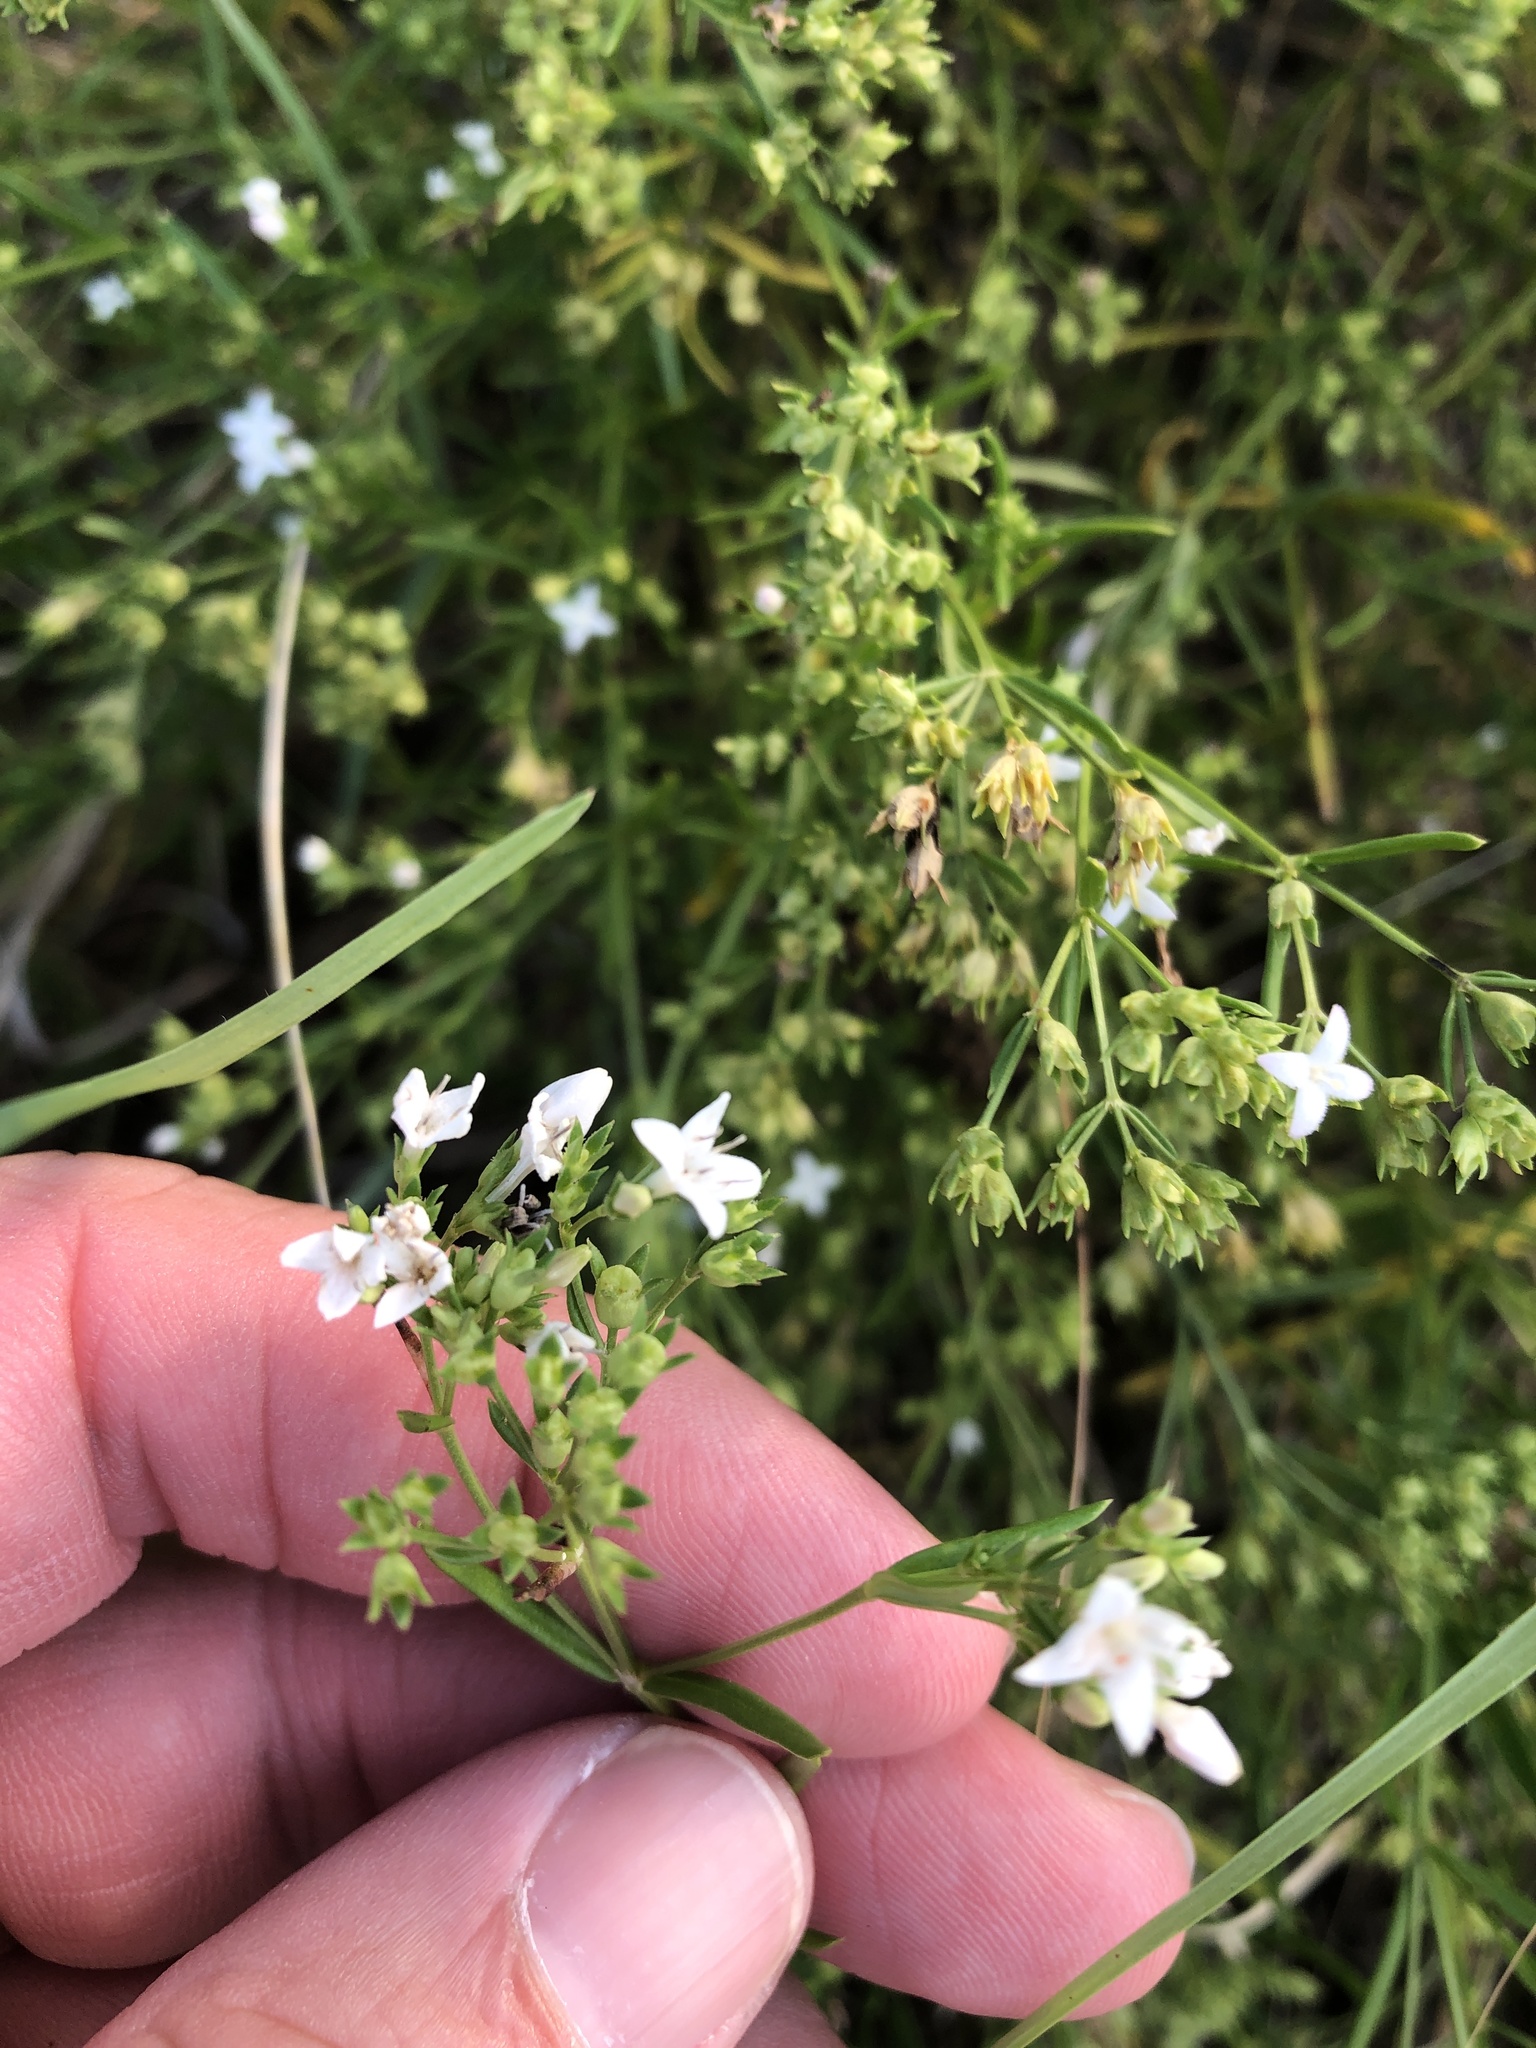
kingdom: Plantae
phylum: Tracheophyta
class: Magnoliopsida
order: Gentianales
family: Rubiaceae
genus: Stenaria
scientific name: Stenaria nigricans
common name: Diamondflowers
